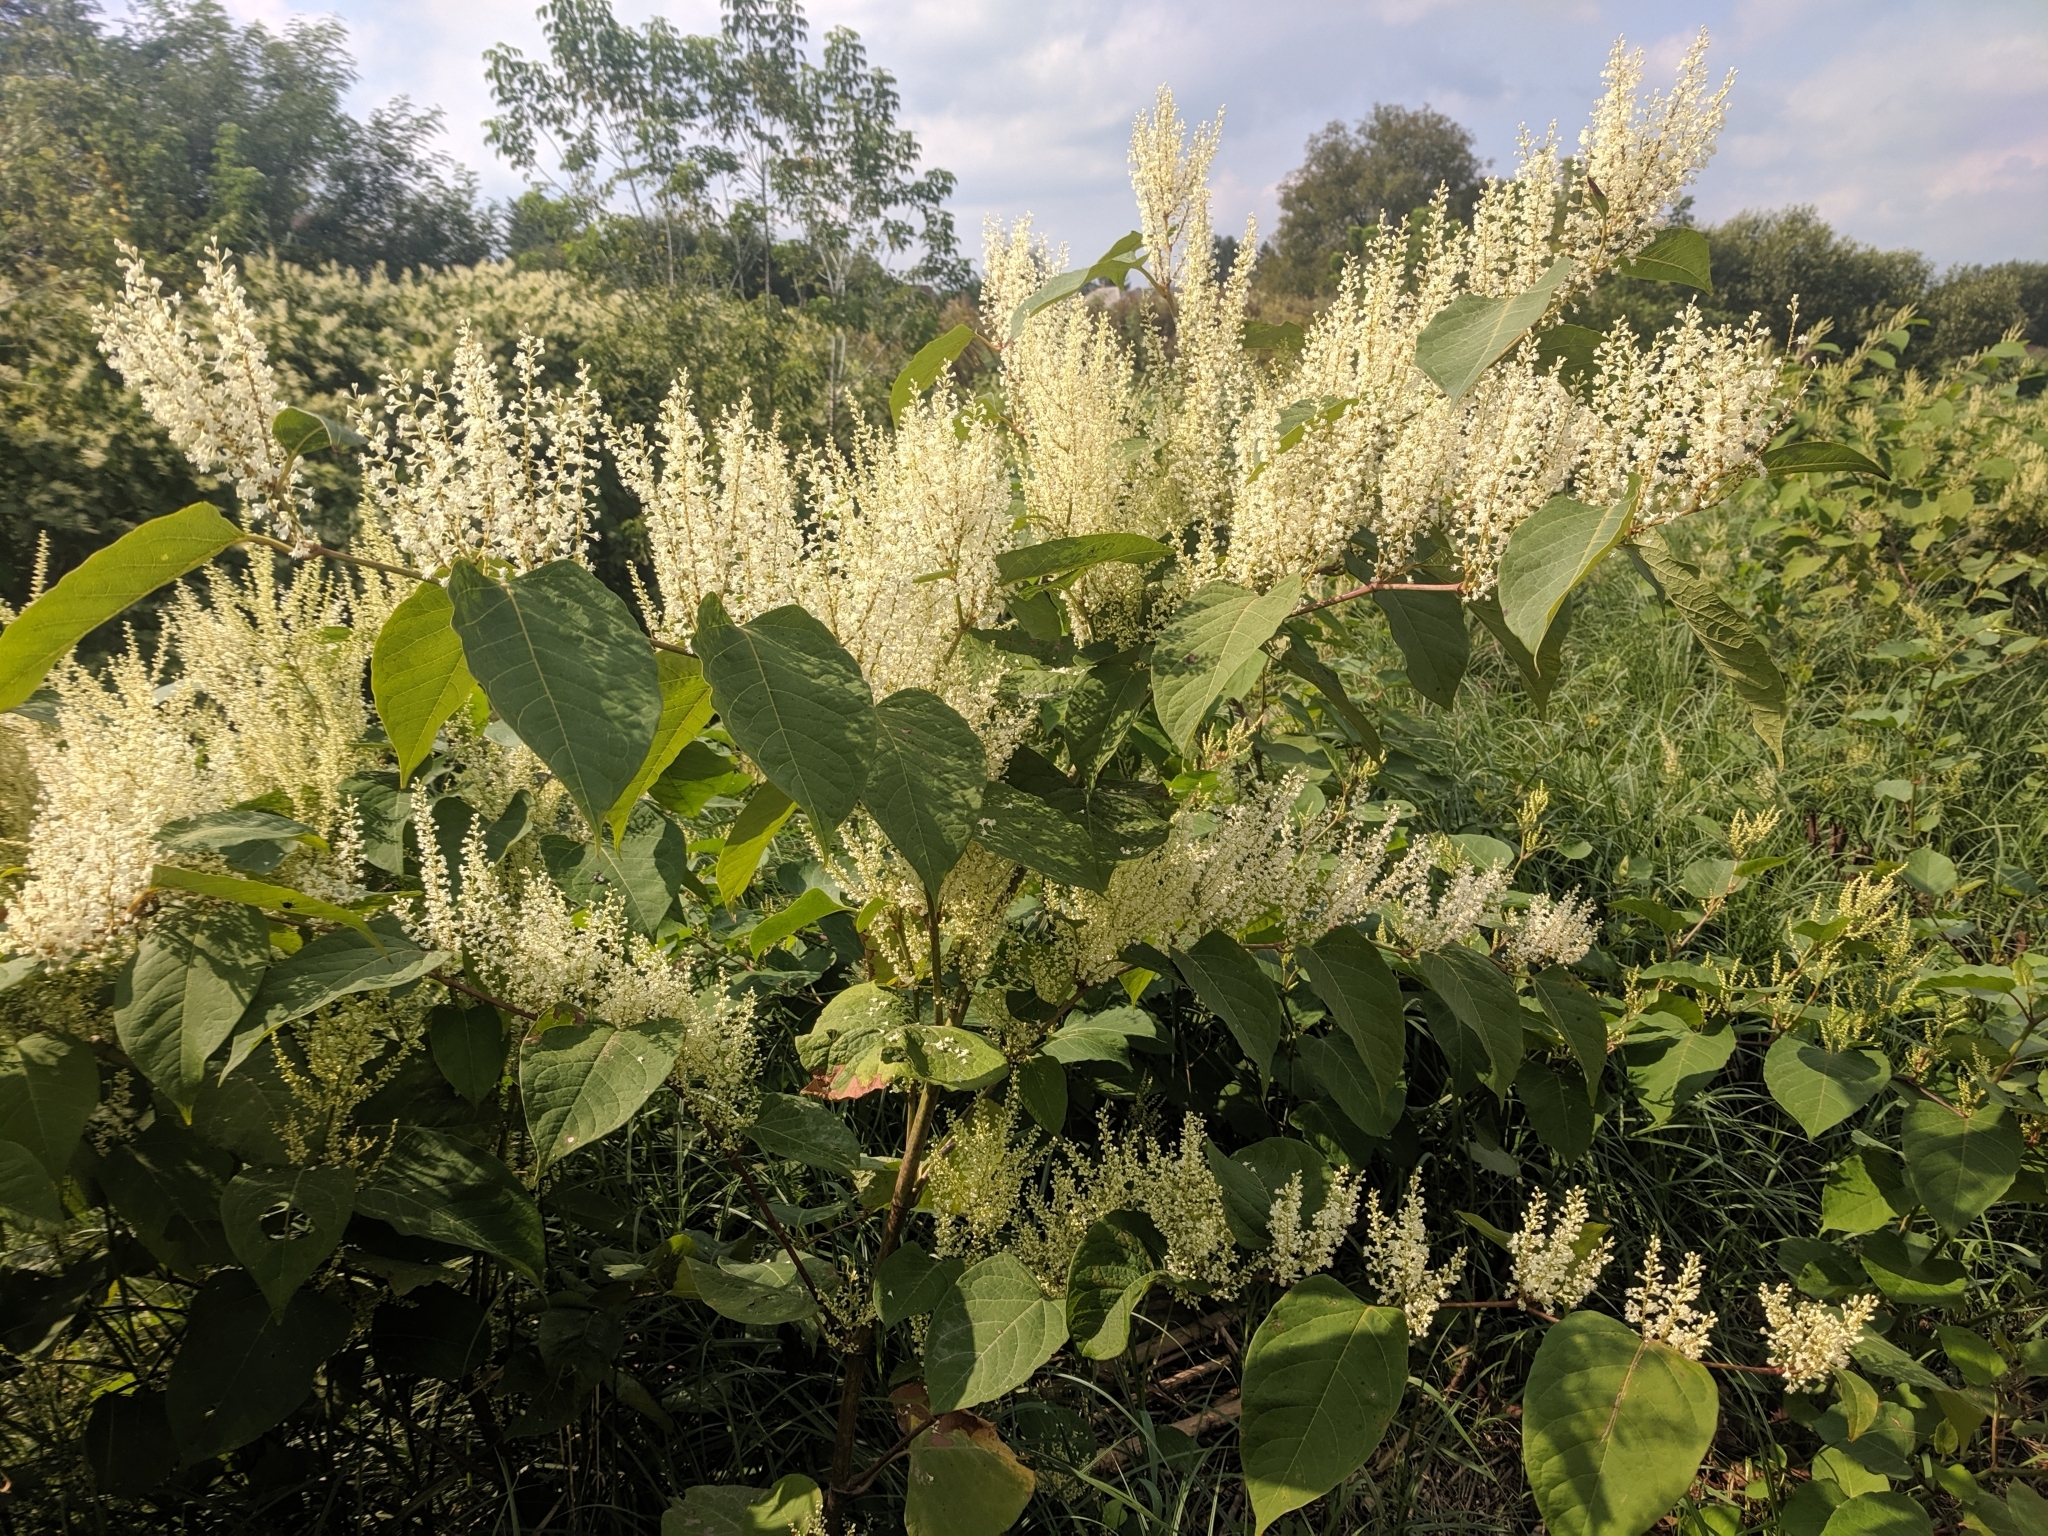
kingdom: Plantae
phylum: Tracheophyta
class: Magnoliopsida
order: Caryophyllales
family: Polygonaceae
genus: Reynoutria
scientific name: Reynoutria japonica
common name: Japanese knotweed
